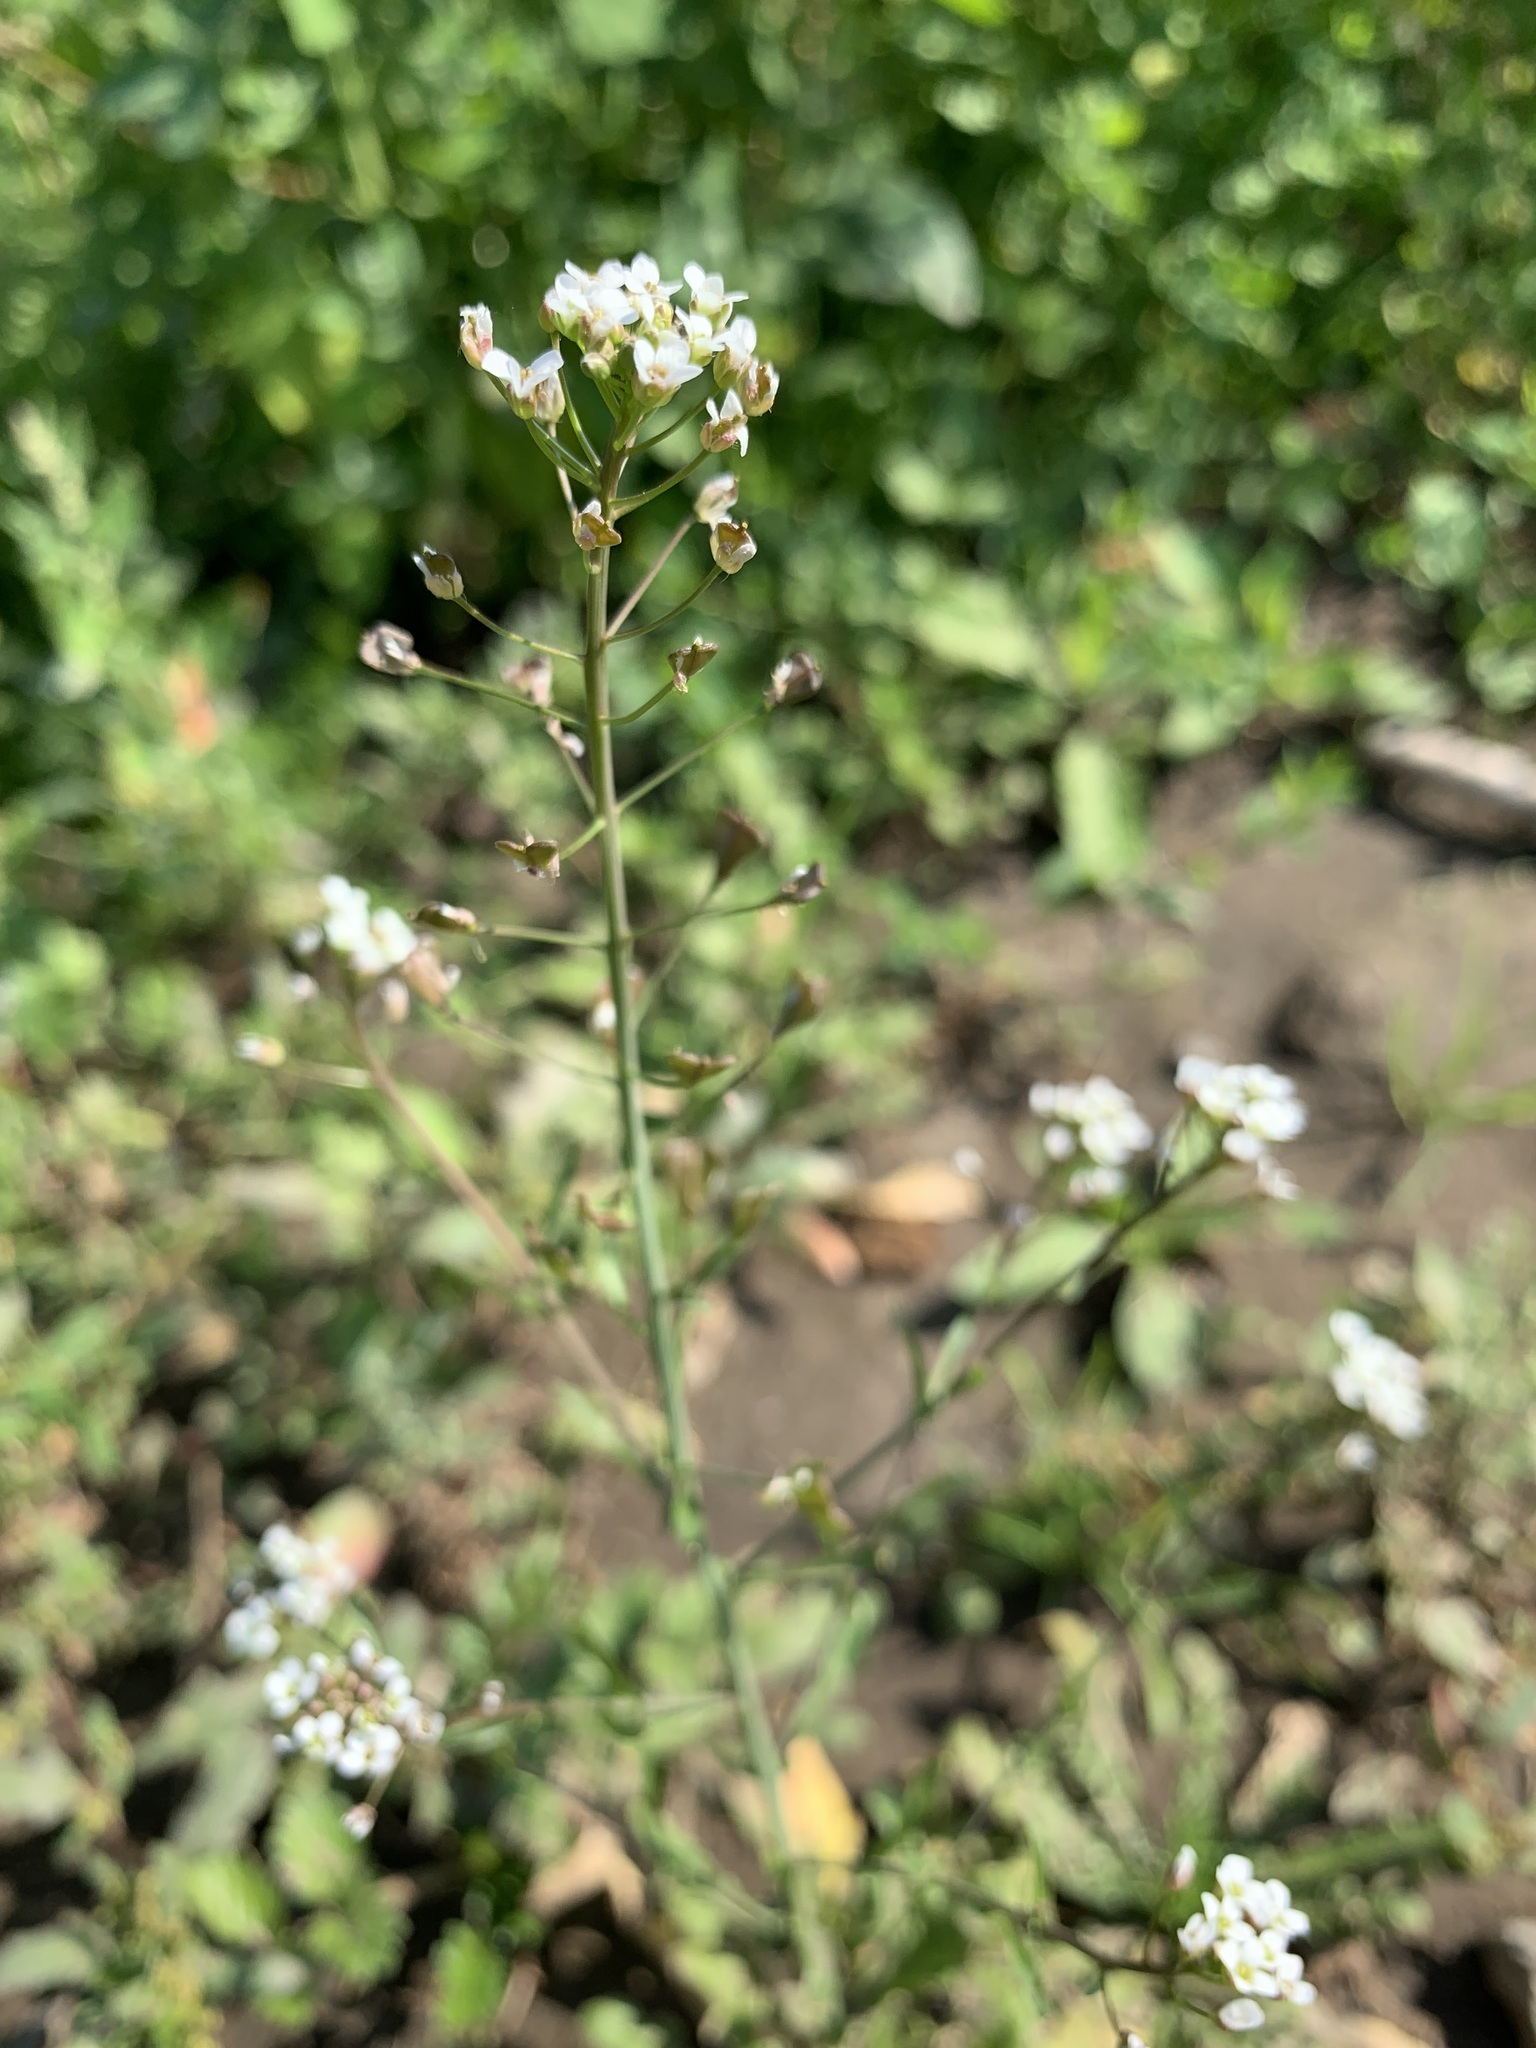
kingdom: Plantae
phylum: Tracheophyta
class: Magnoliopsida
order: Brassicales
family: Brassicaceae
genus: Capsella
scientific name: Capsella bursa-pastoris
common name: Shepherd's purse
